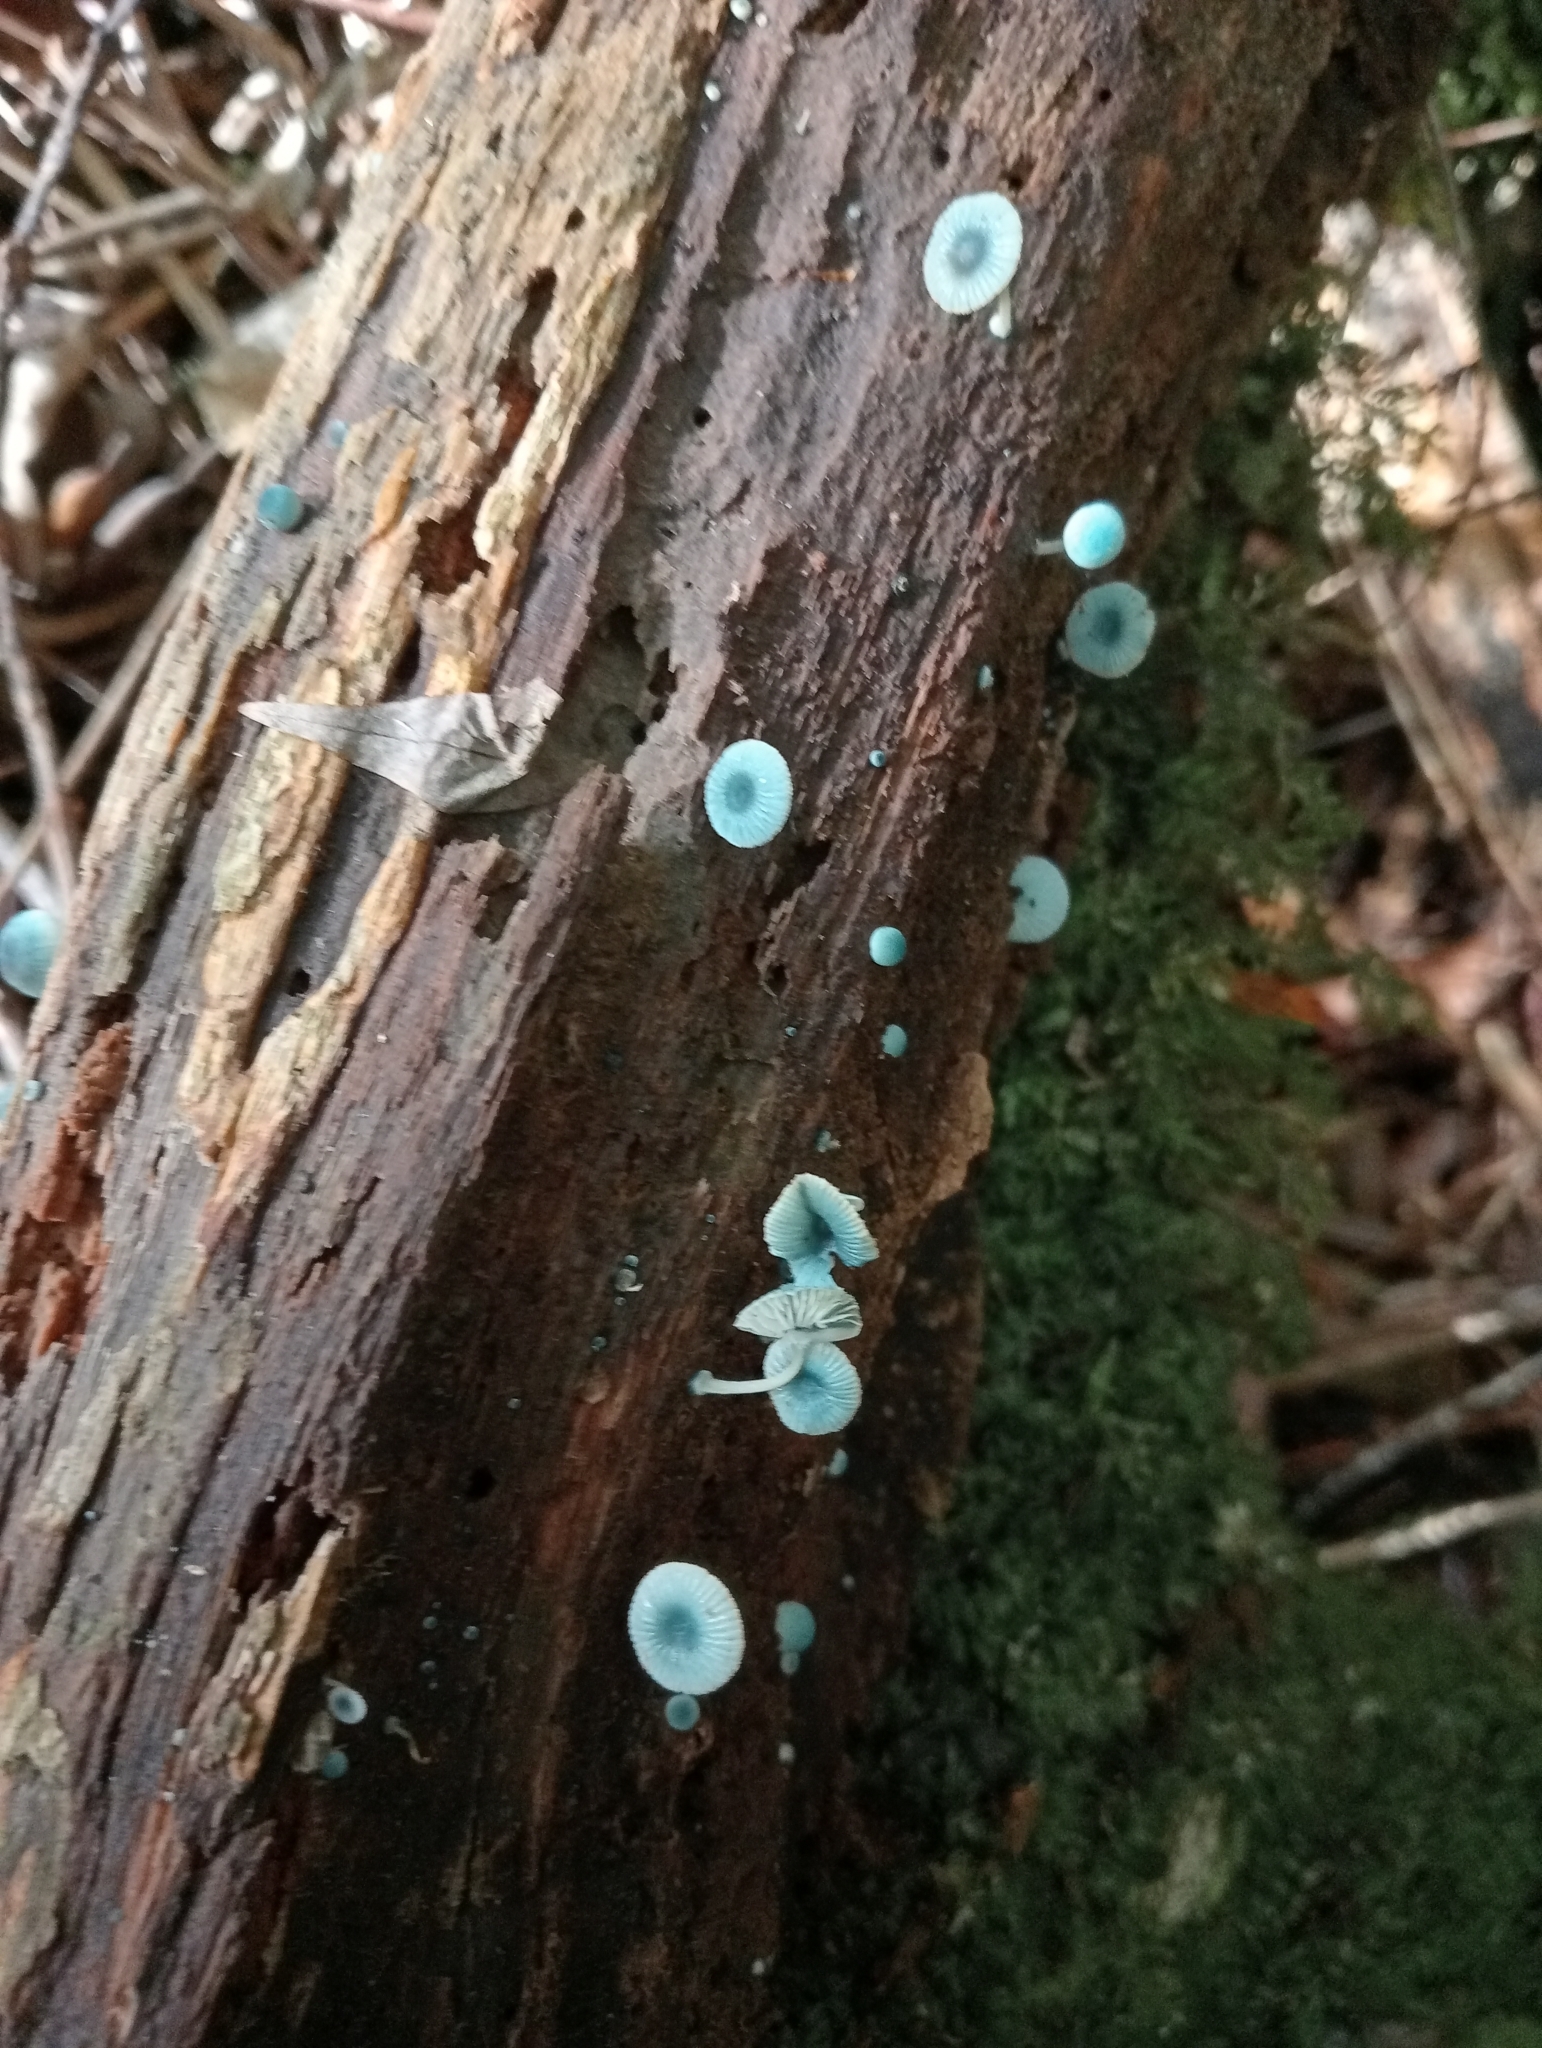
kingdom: Fungi
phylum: Basidiomycota
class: Agaricomycetes
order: Agaricales
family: Mycenaceae
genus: Mycena
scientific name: Mycena interrupta
